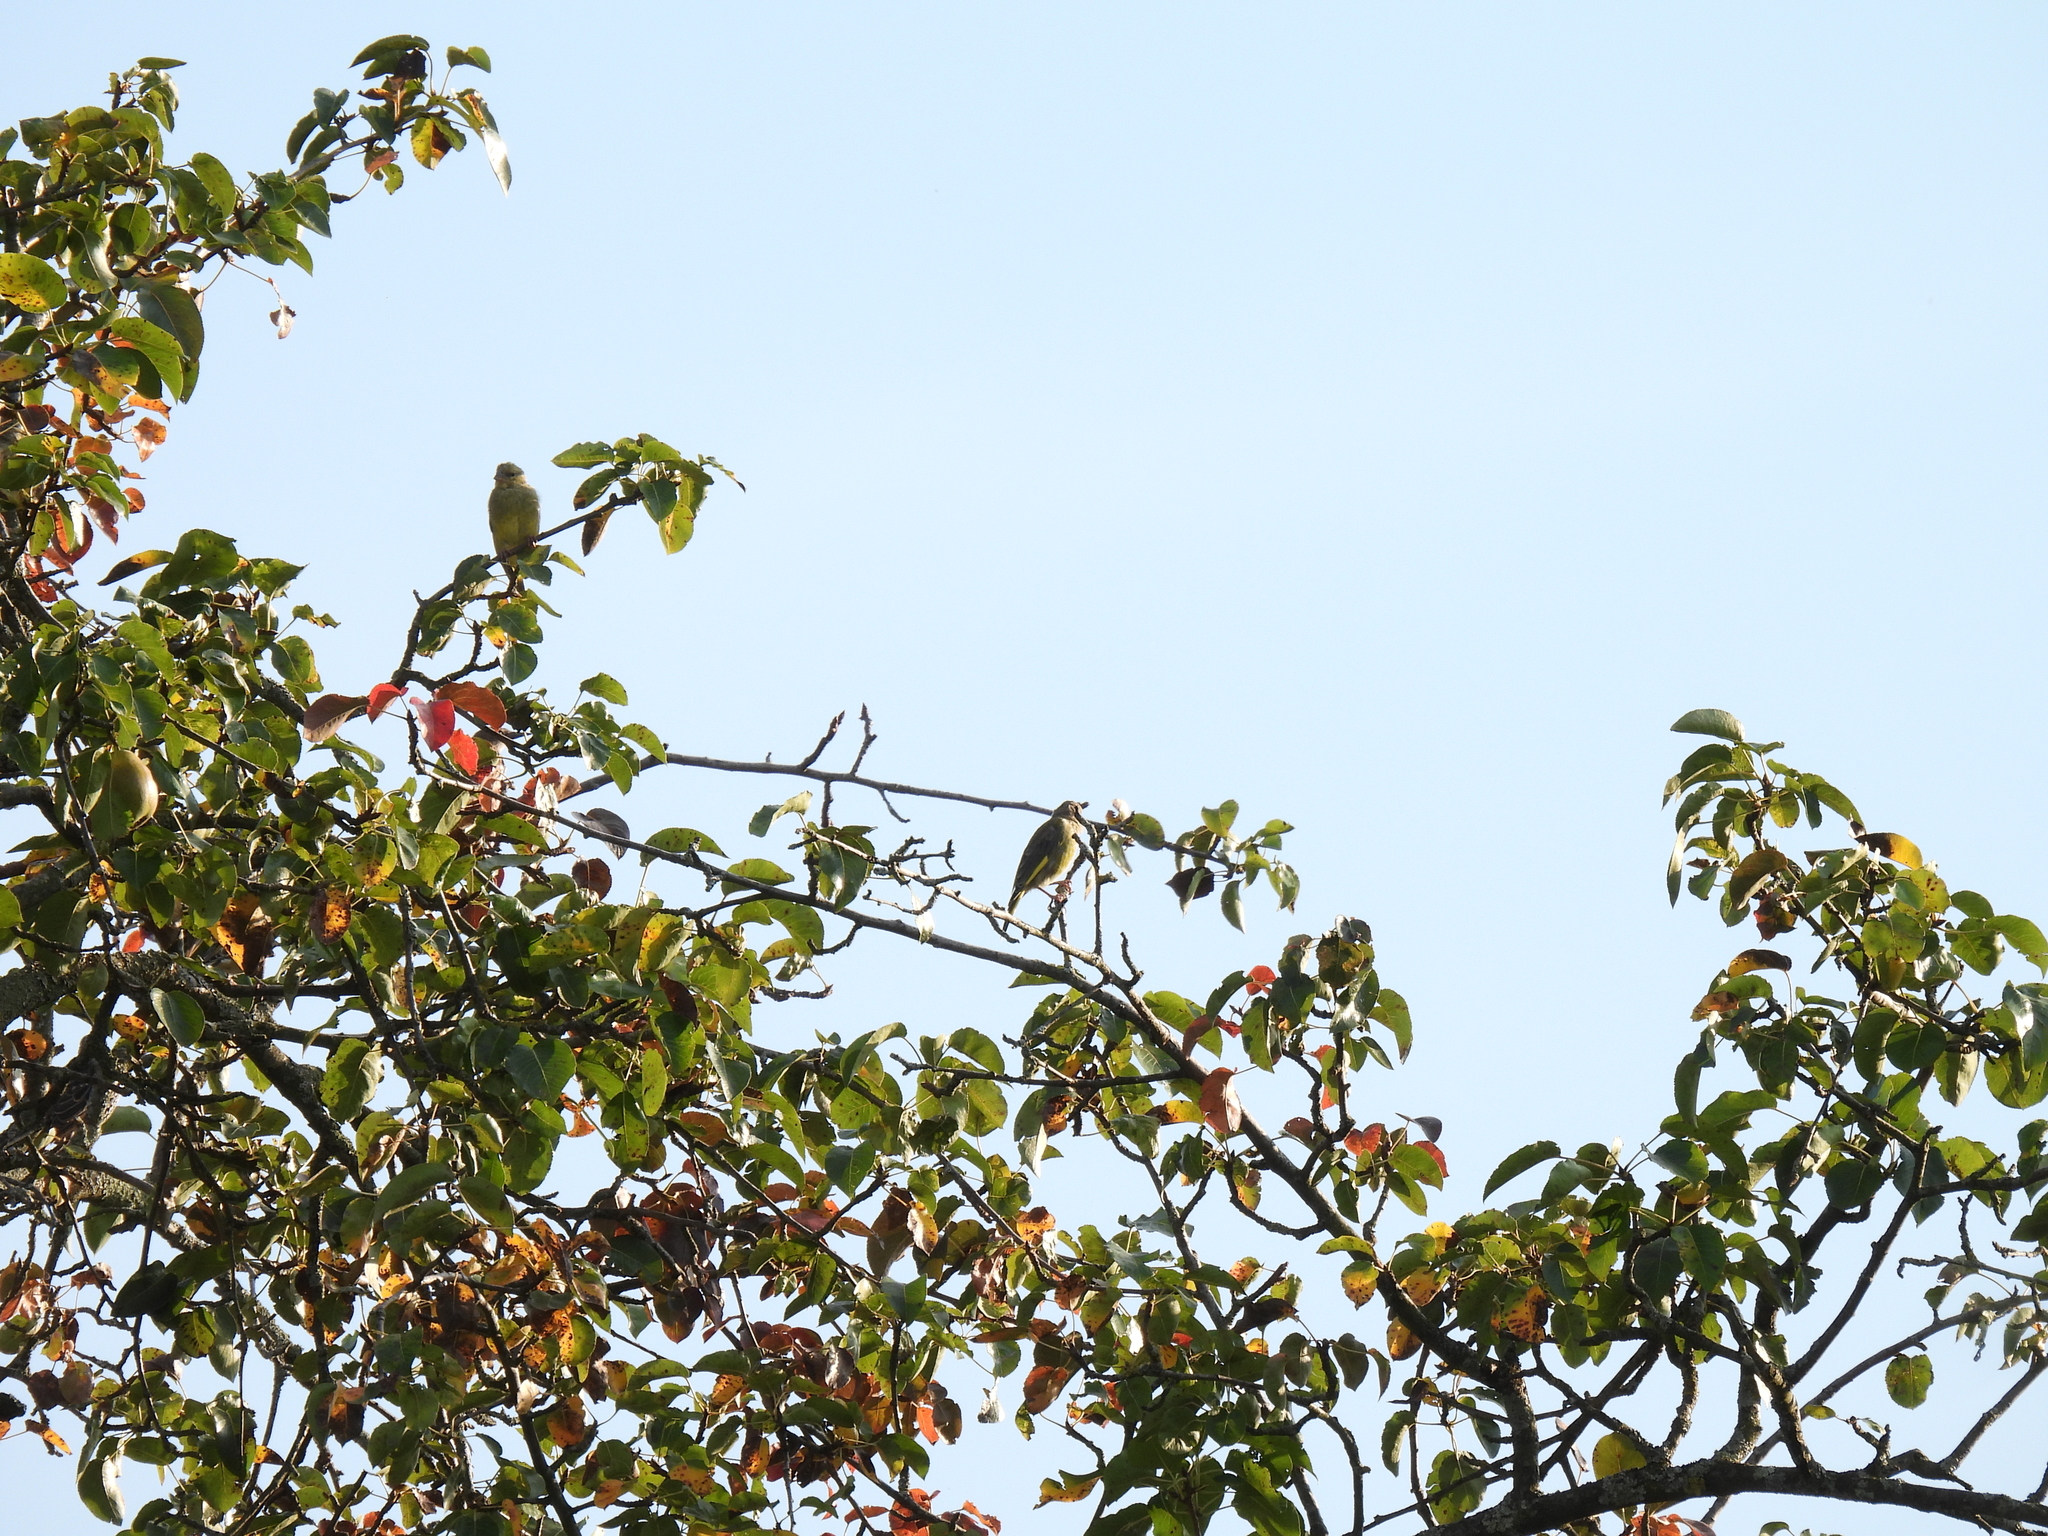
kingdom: Plantae
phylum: Tracheophyta
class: Liliopsida
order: Poales
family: Poaceae
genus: Chloris
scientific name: Chloris chloris
